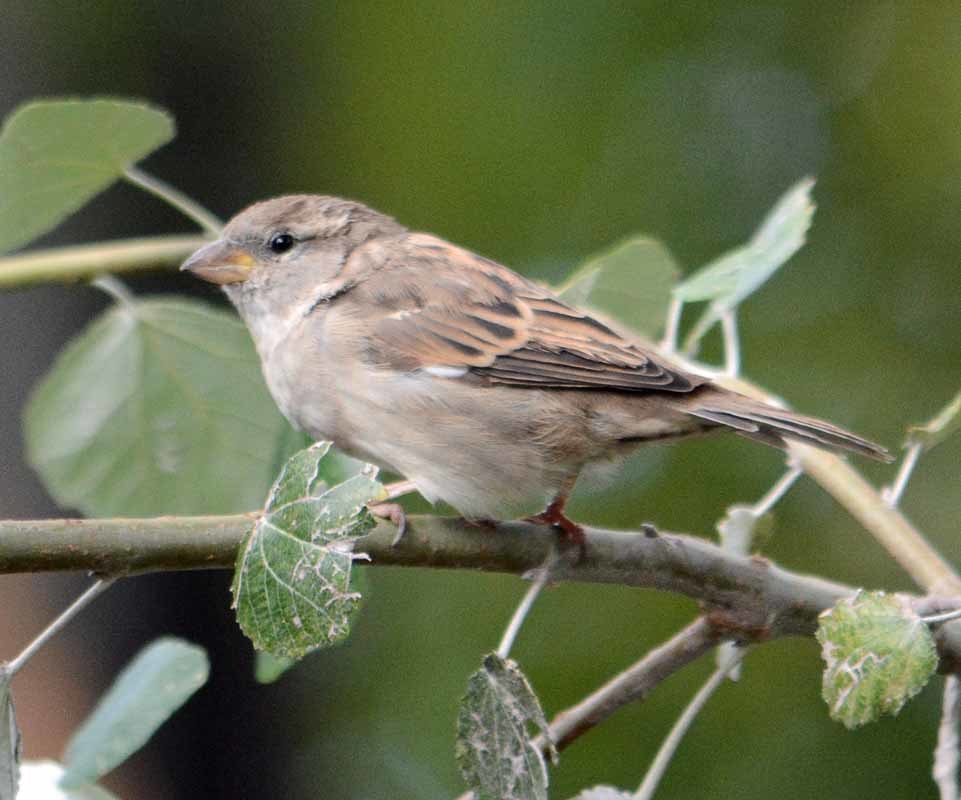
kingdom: Animalia
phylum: Chordata
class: Aves
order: Passeriformes
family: Passeridae
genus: Passer
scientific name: Passer domesticus
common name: House sparrow
